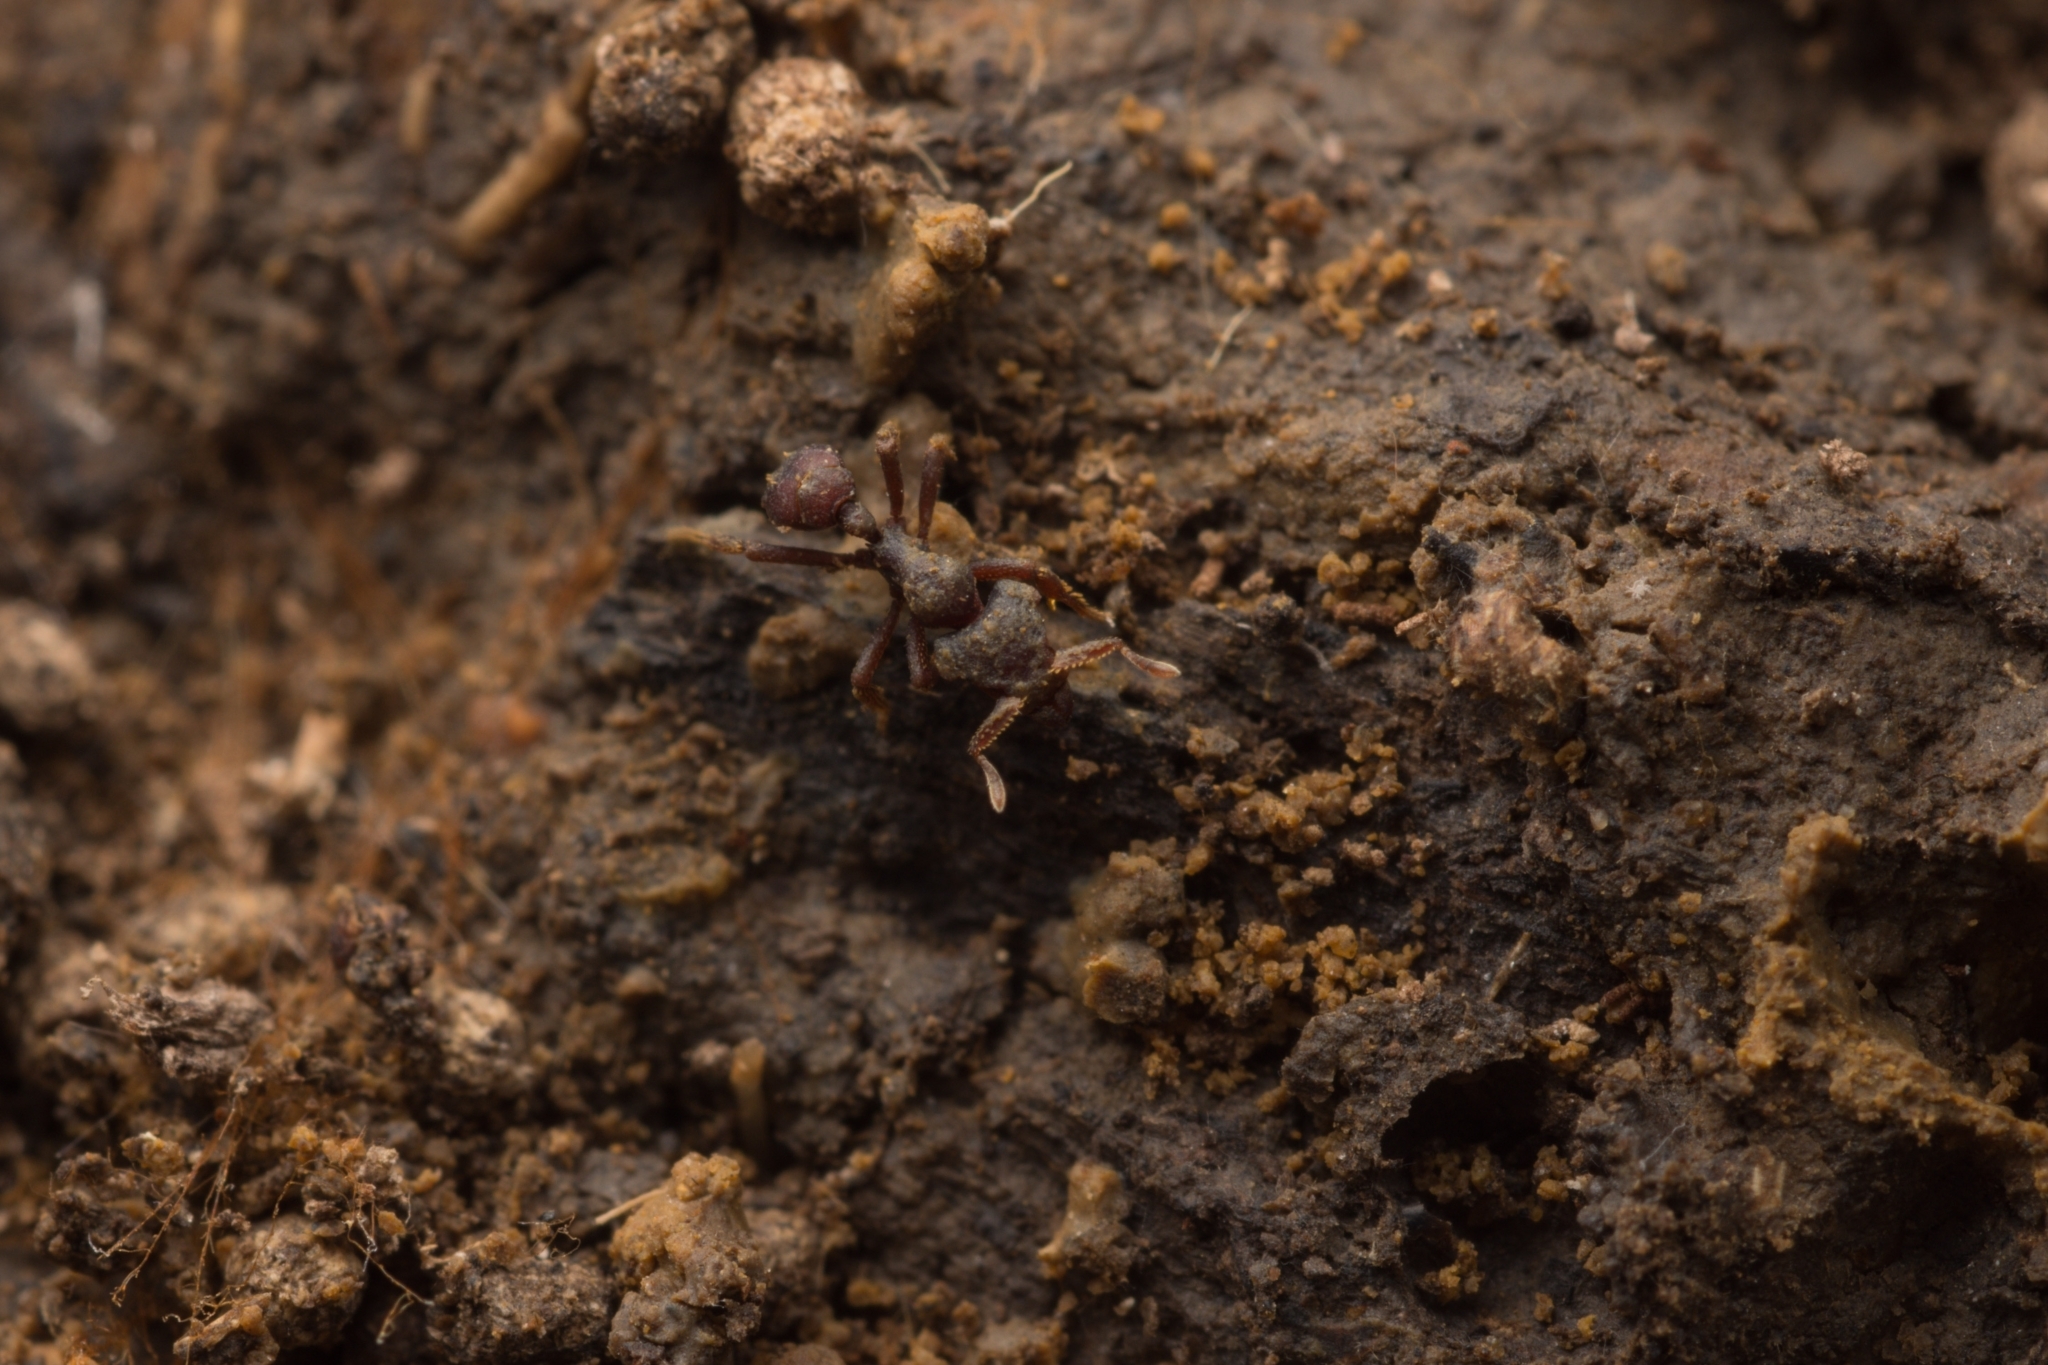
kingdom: Animalia
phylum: Arthropoda
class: Insecta
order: Hymenoptera
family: Formicidae
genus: Eurhopalothrix
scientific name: Eurhopalothrix heliscata
